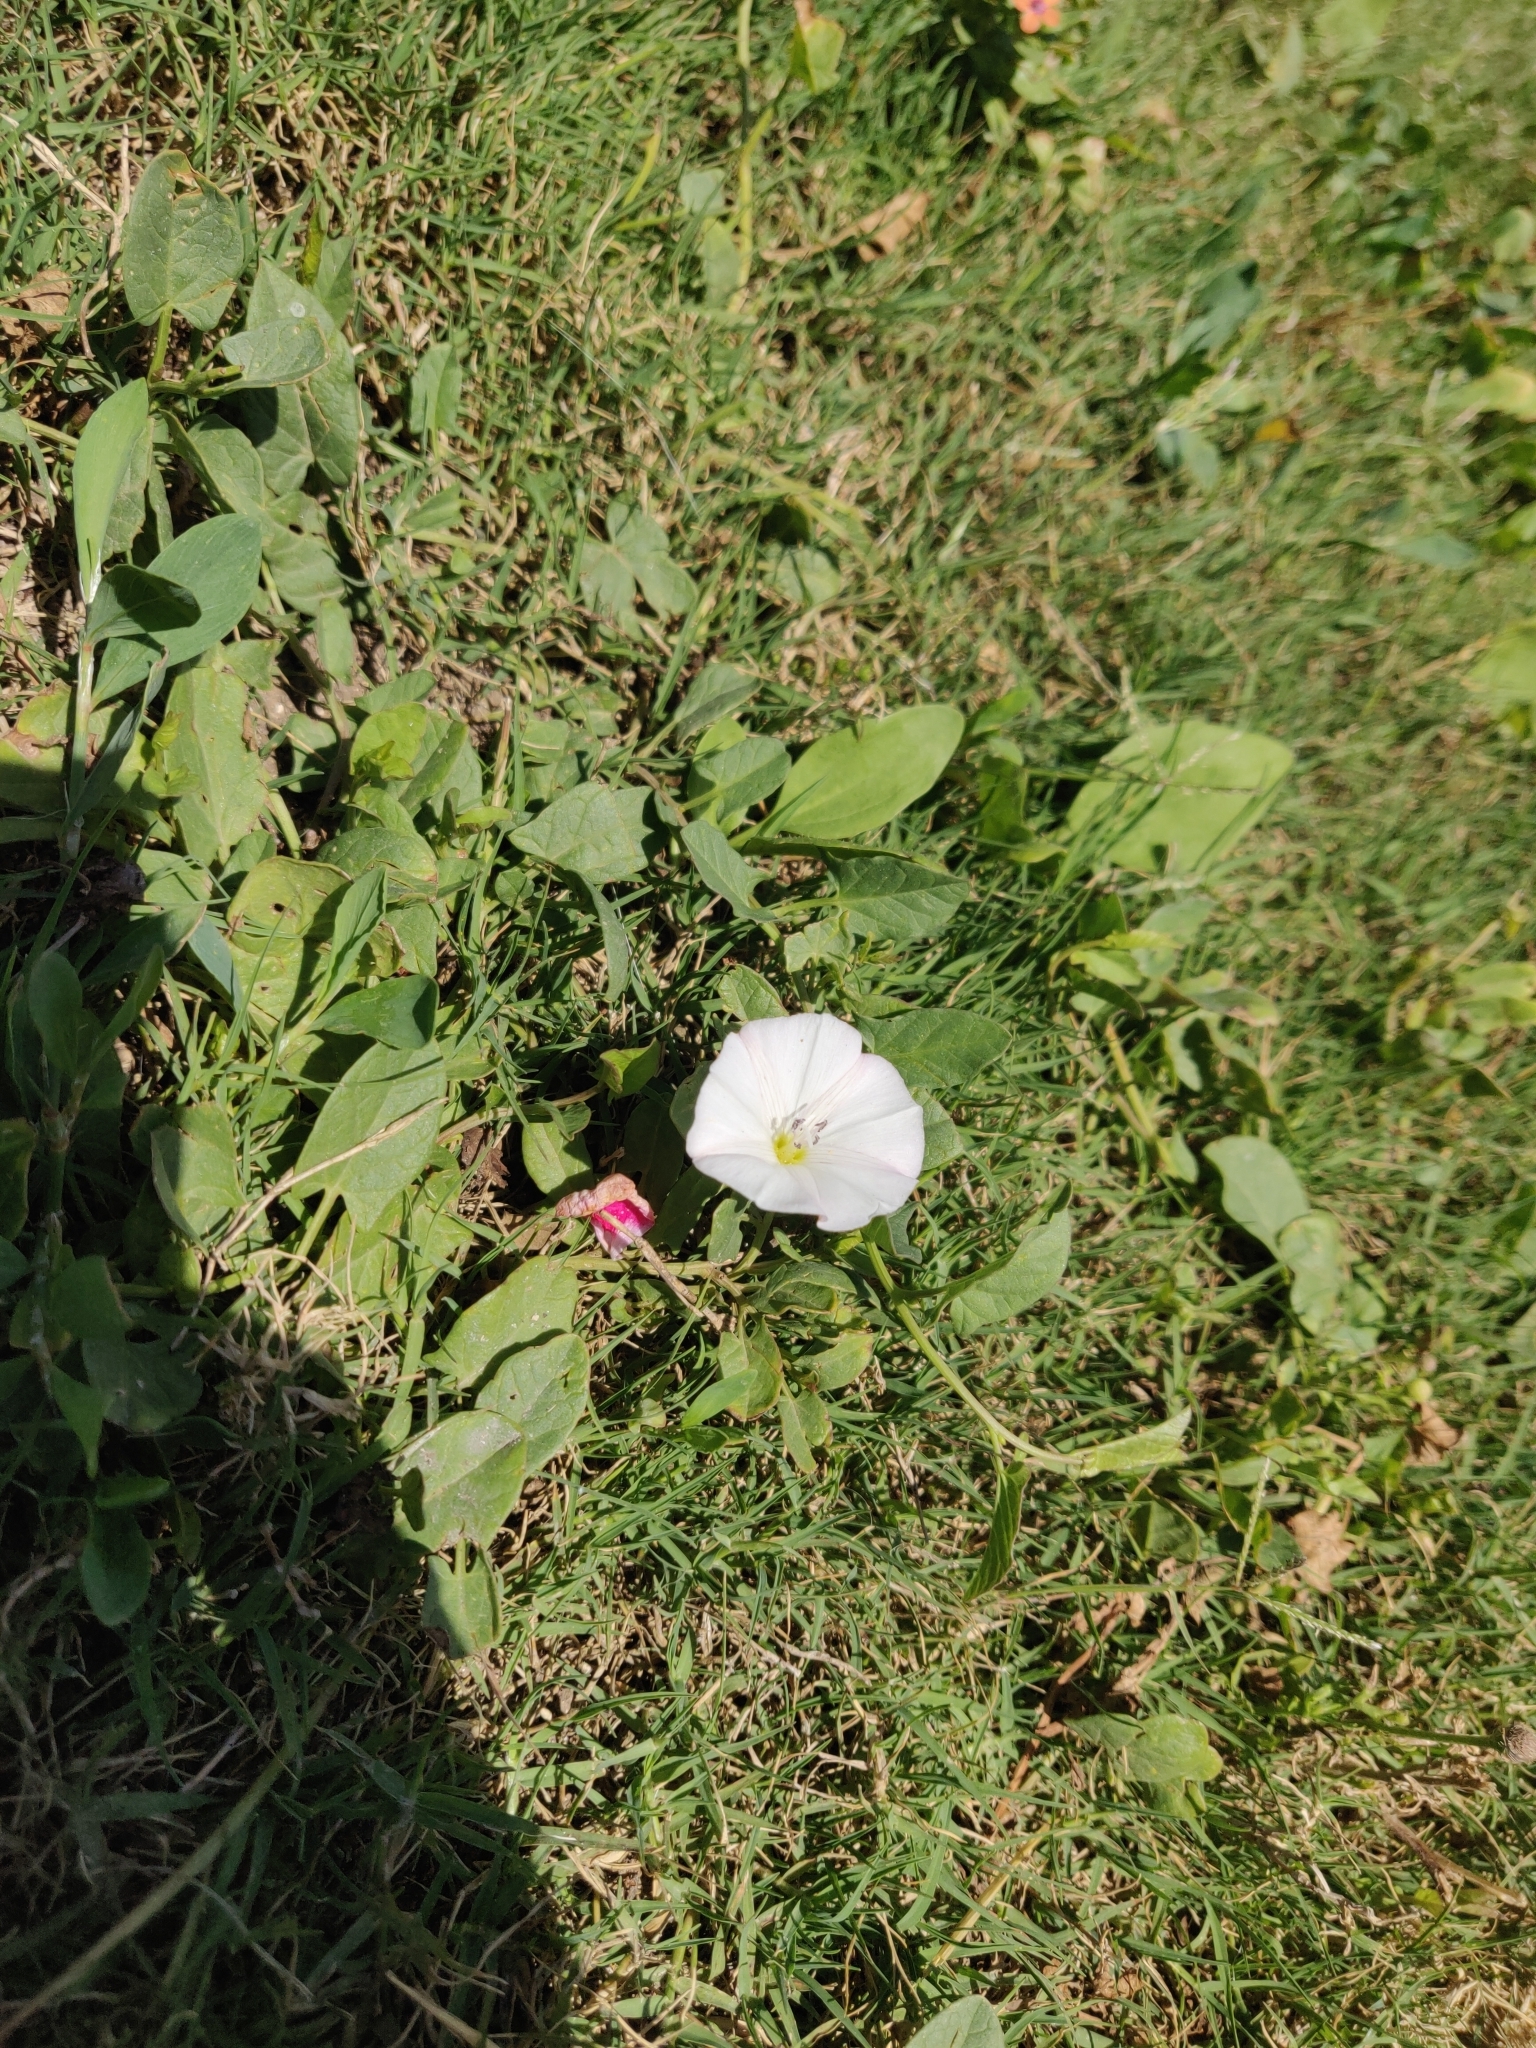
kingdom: Plantae
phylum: Tracheophyta
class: Magnoliopsida
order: Solanales
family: Convolvulaceae
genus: Convolvulus
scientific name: Convolvulus arvensis
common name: Field bindweed
